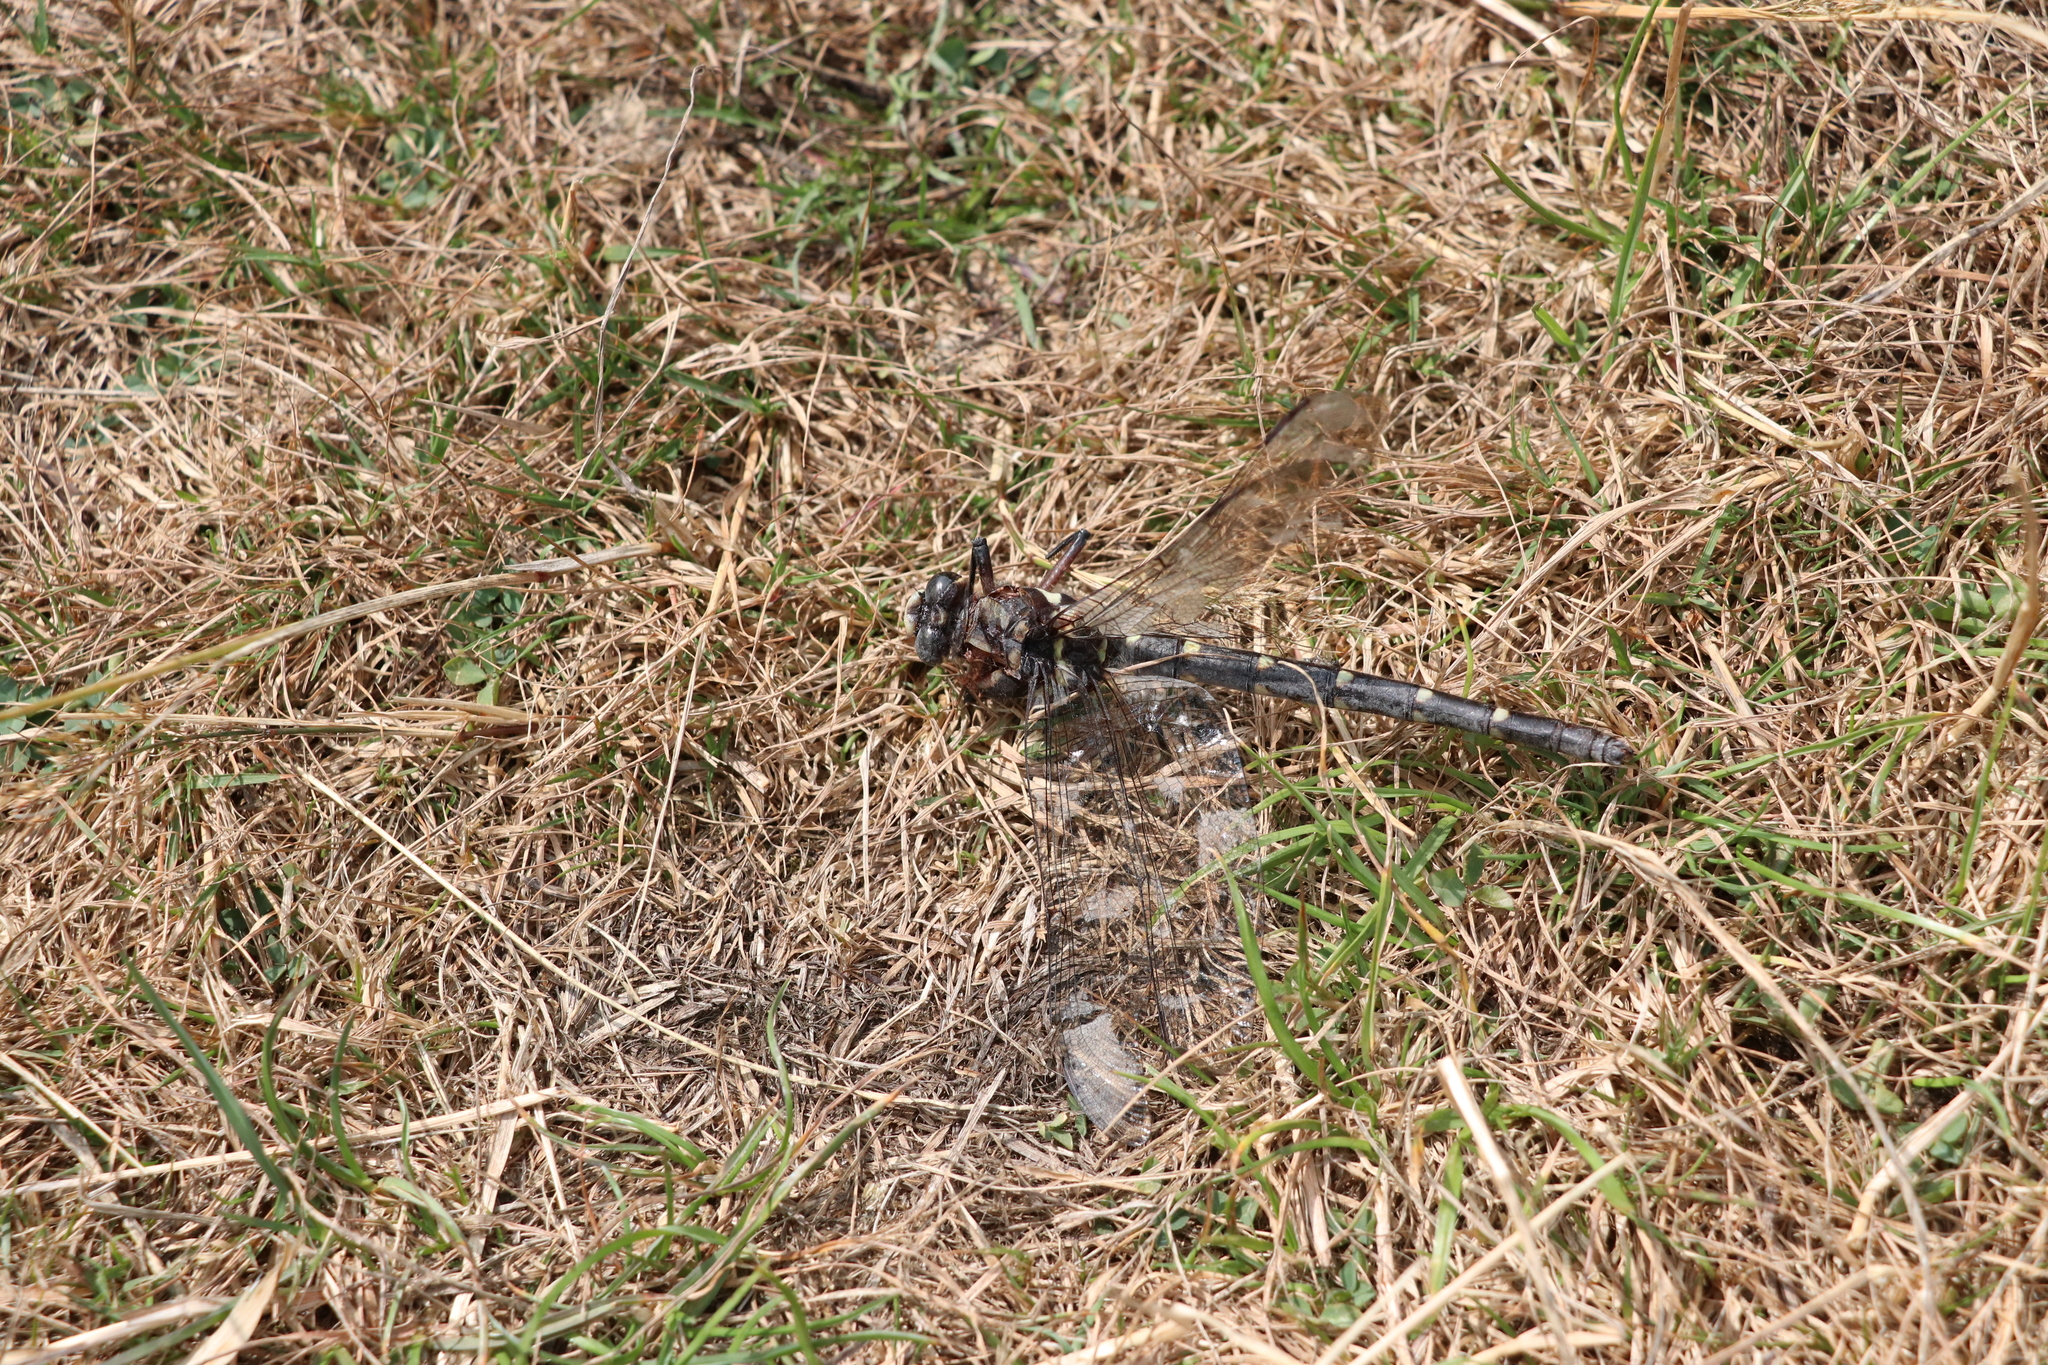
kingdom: Animalia
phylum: Arthropoda
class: Insecta
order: Odonata
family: Petaluridae
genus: Uropetala
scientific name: Uropetala carovei
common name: Bush giant dragonfly
